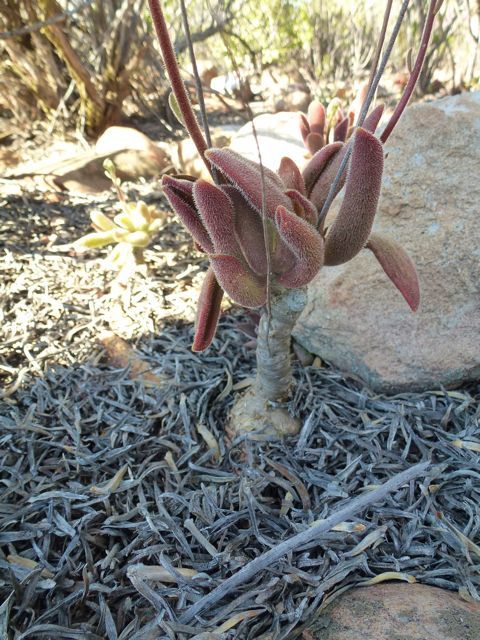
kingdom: Plantae
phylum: Tracheophyta
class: Magnoliopsida
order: Saxifragales
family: Crassulaceae
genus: Tylecodon
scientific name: Tylecodon leucothrix
